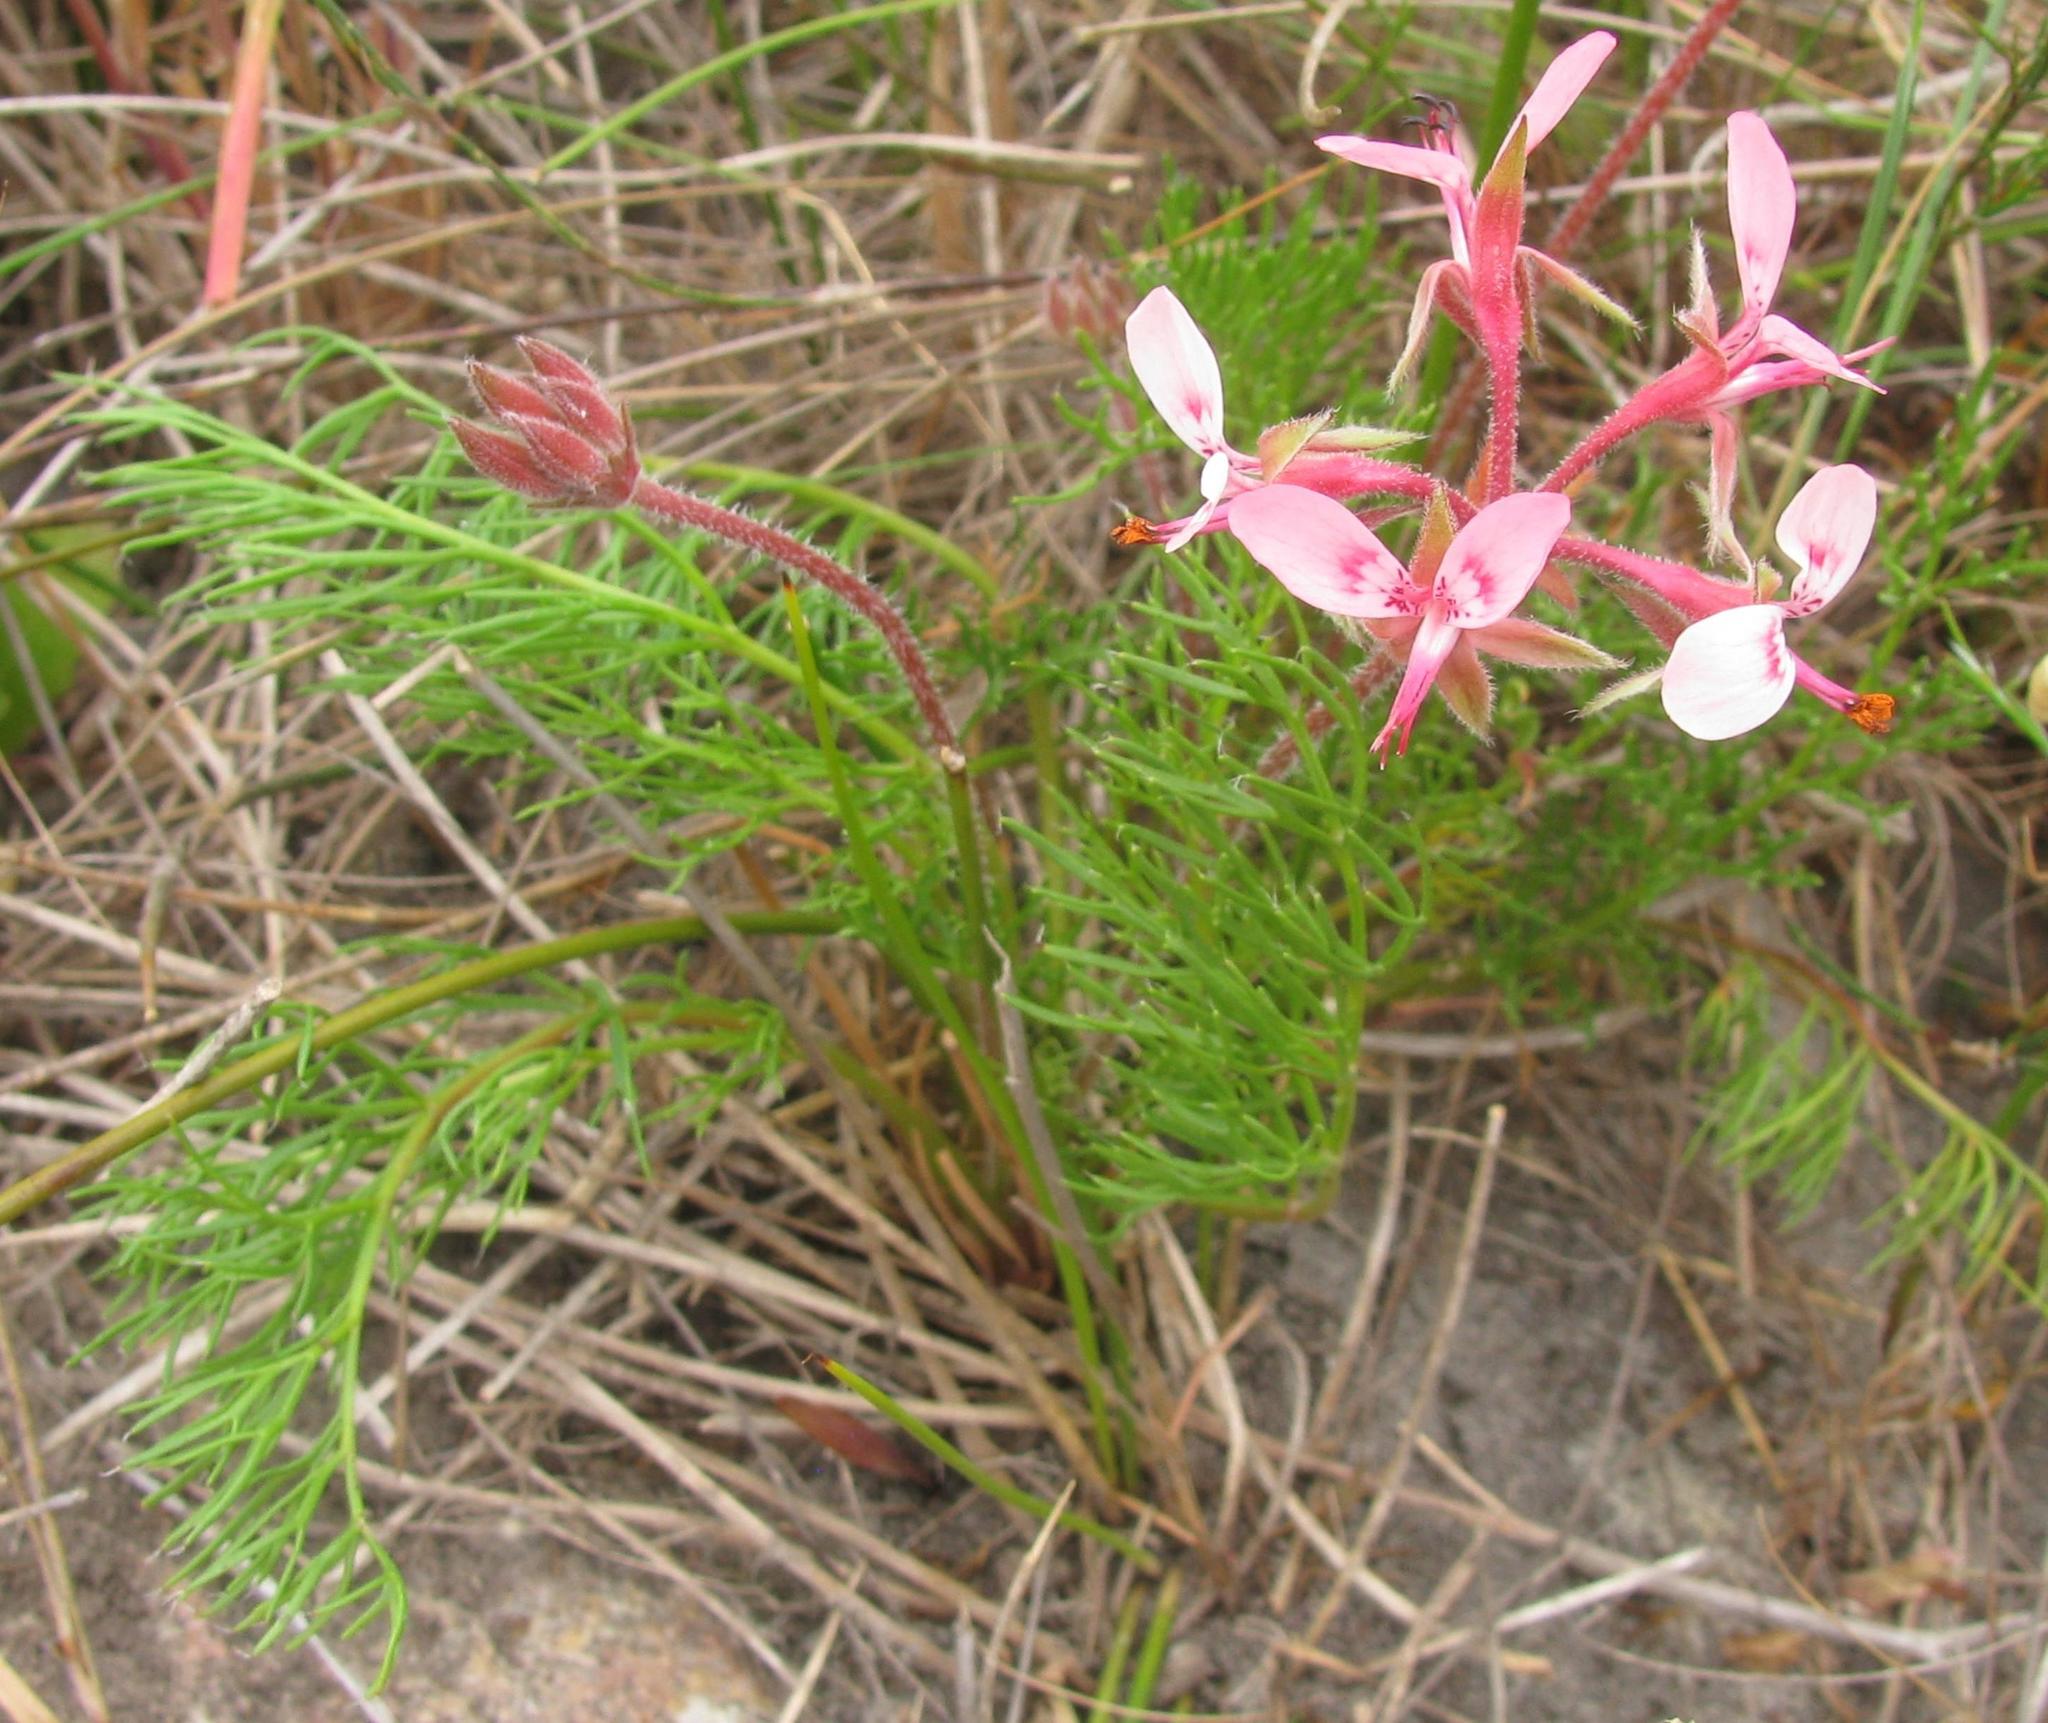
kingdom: Plantae
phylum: Tracheophyta
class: Magnoliopsida
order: Geraniales
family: Geraniaceae
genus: Pelargonium
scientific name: Pelargonium uliginosum
